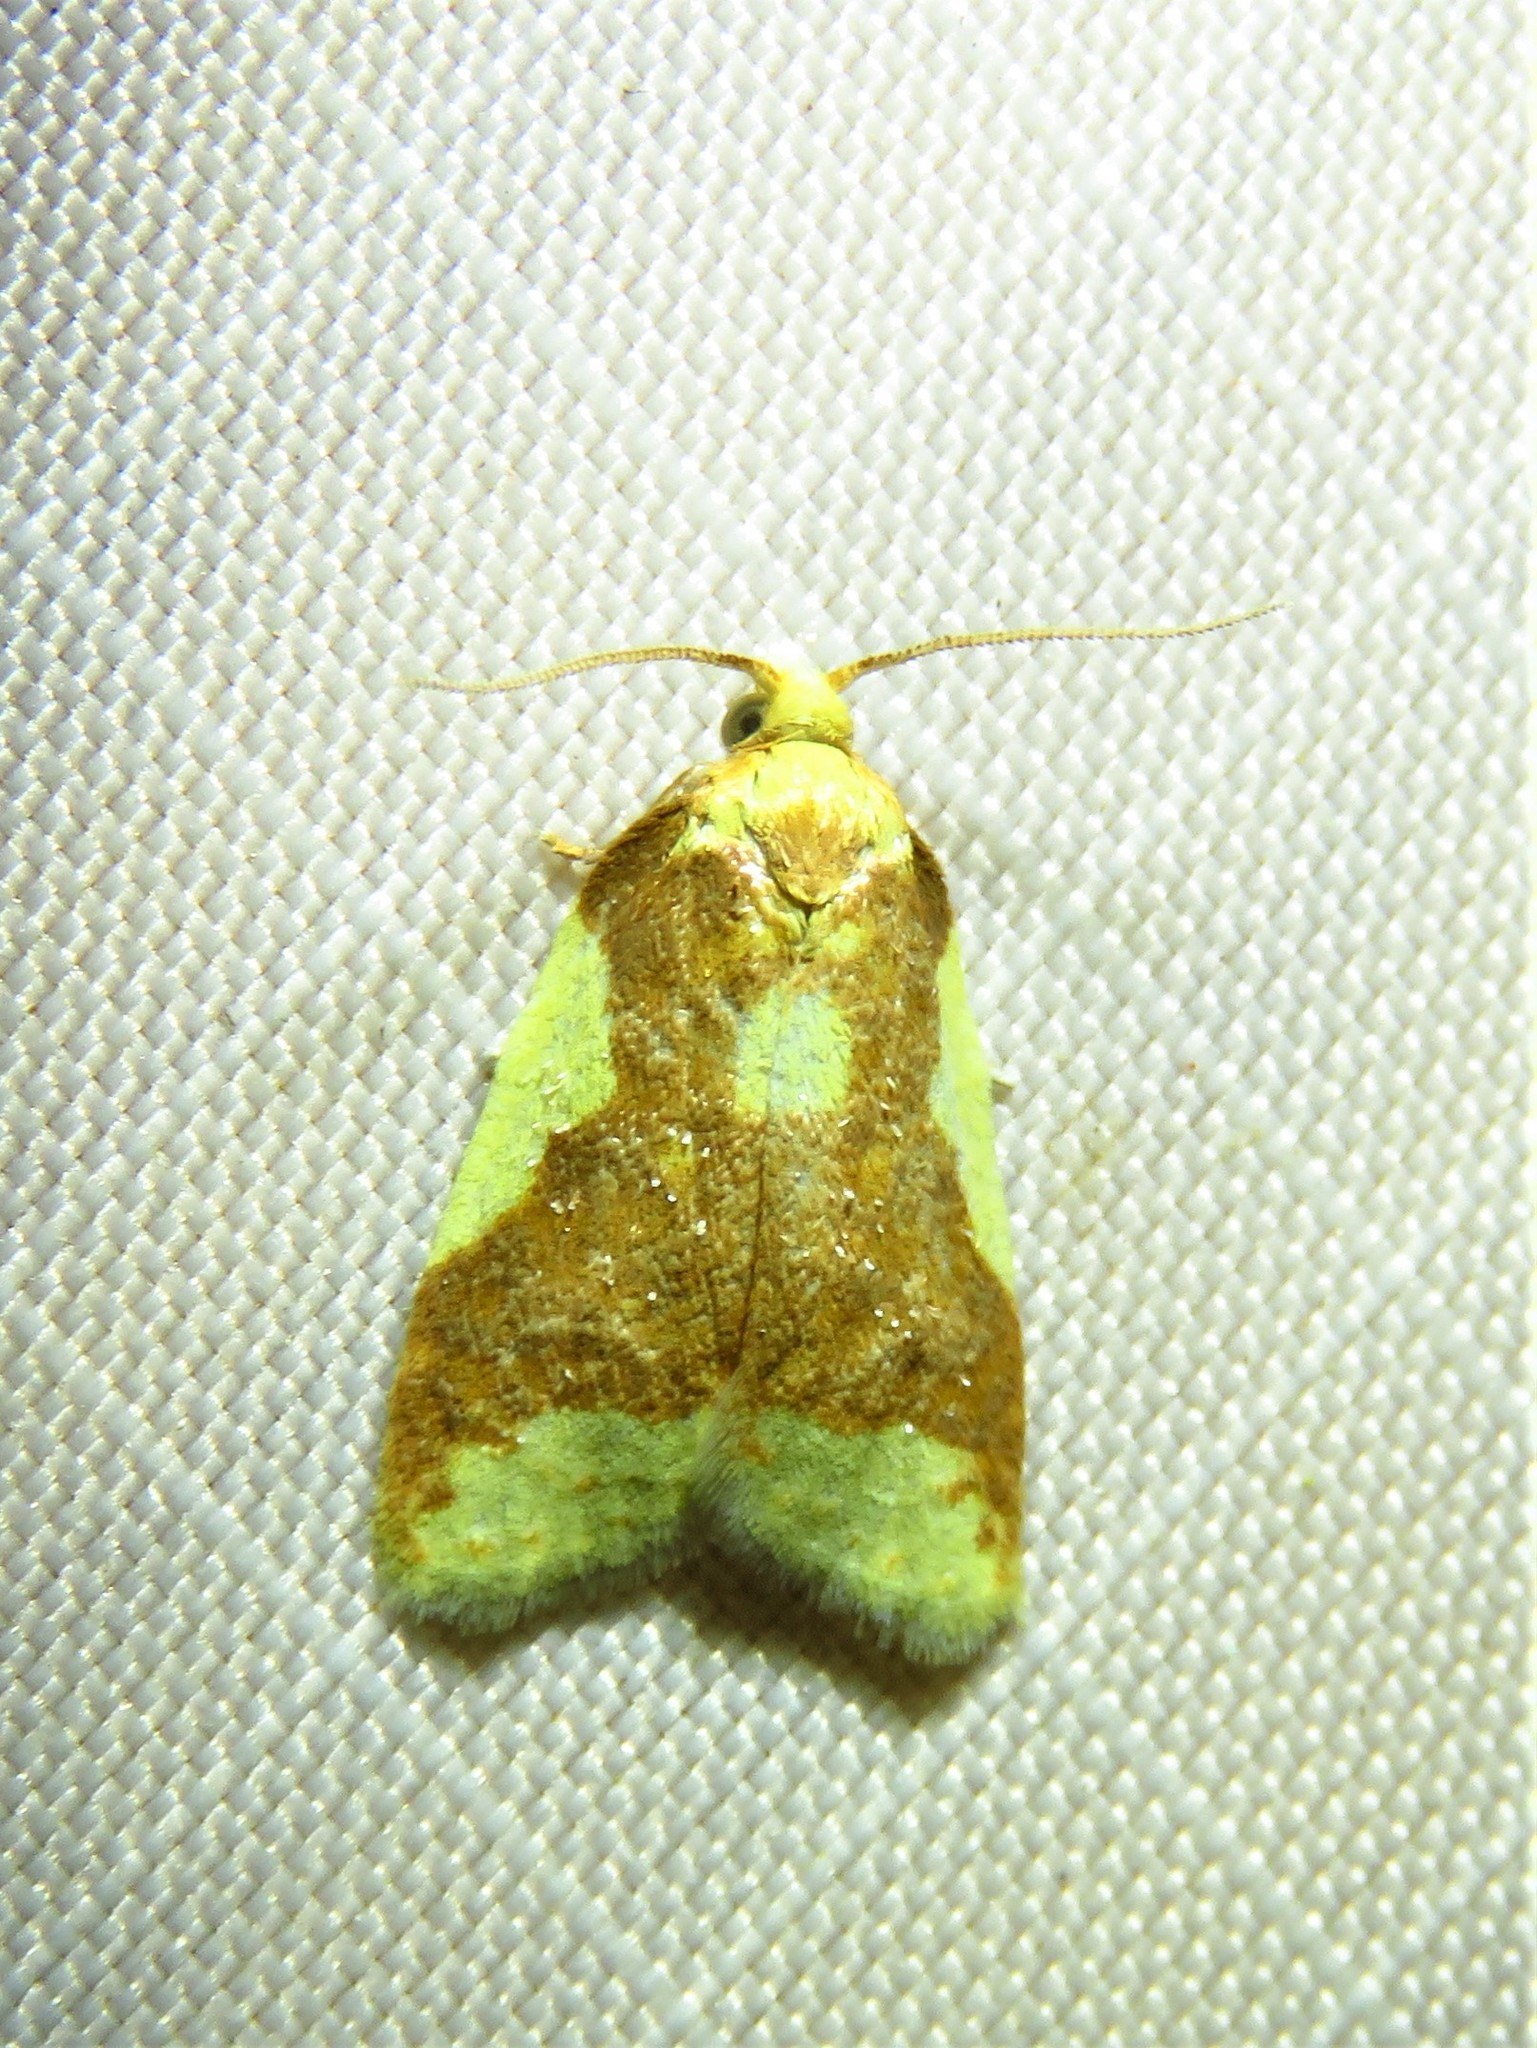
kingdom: Animalia
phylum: Arthropoda
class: Insecta
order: Lepidoptera
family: Tortricidae
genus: Sparganothis
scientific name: Sparganothis pulcherrimana
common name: Beautiful sparganothis
